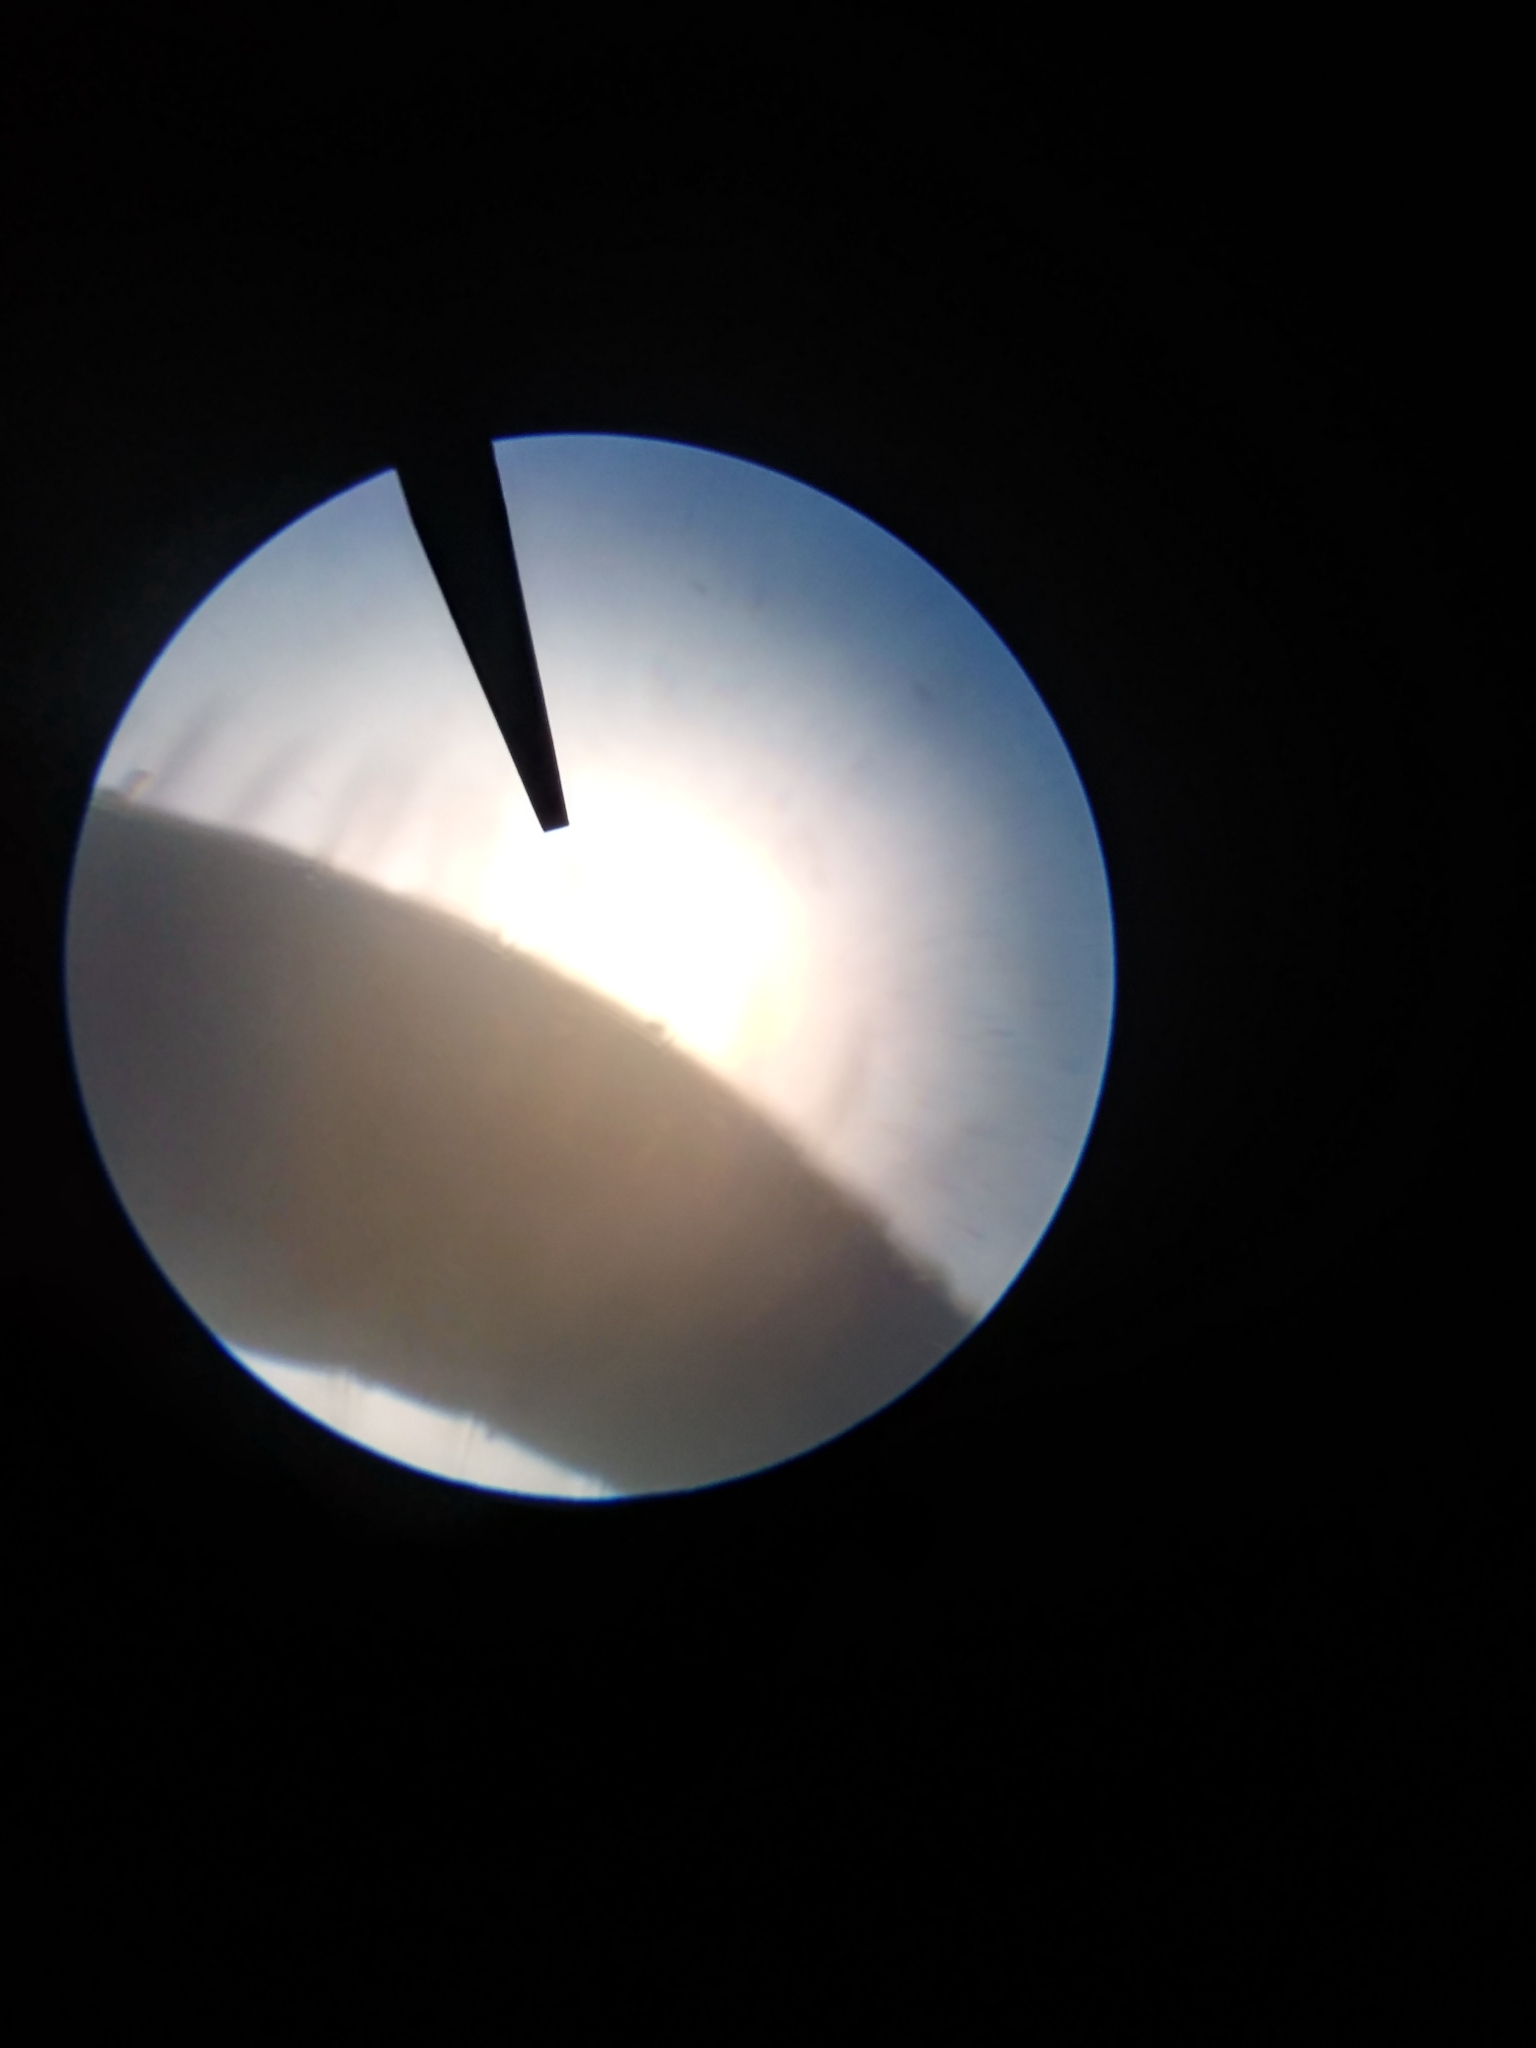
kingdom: Animalia
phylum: Arthropoda
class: Diplopoda
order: Julida
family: Julidae
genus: Ophyiulus
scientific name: Ophyiulus pilosus
